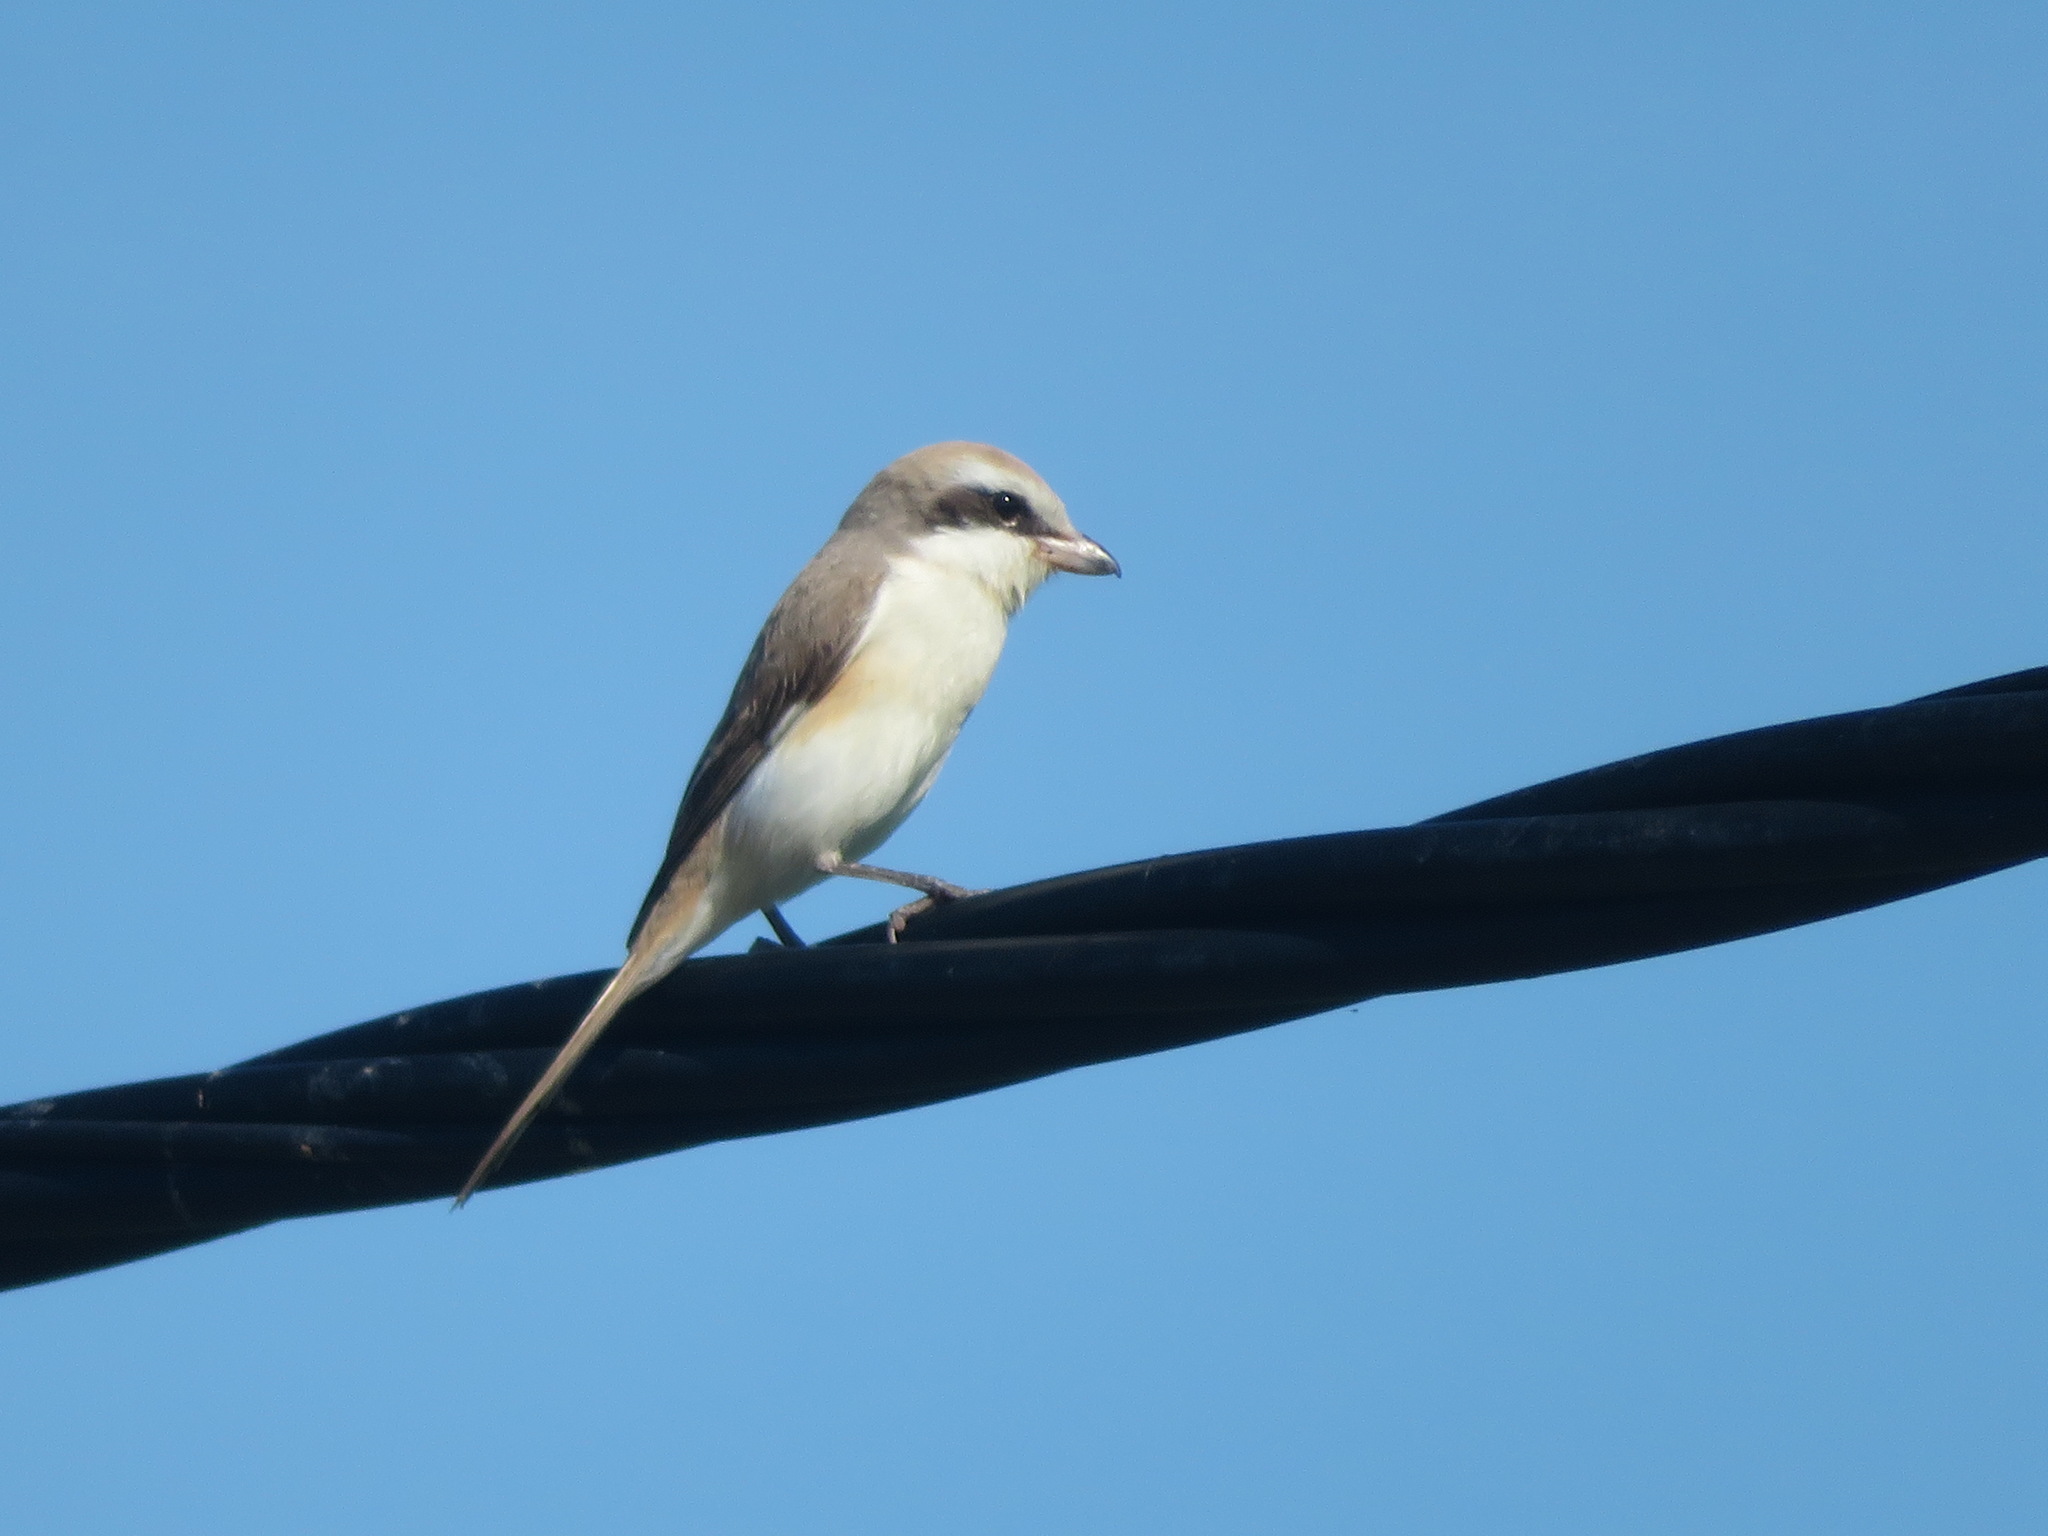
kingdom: Animalia
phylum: Chordata
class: Aves
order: Passeriformes
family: Laniidae
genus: Lanius
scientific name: Lanius cristatus
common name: Brown shrike
